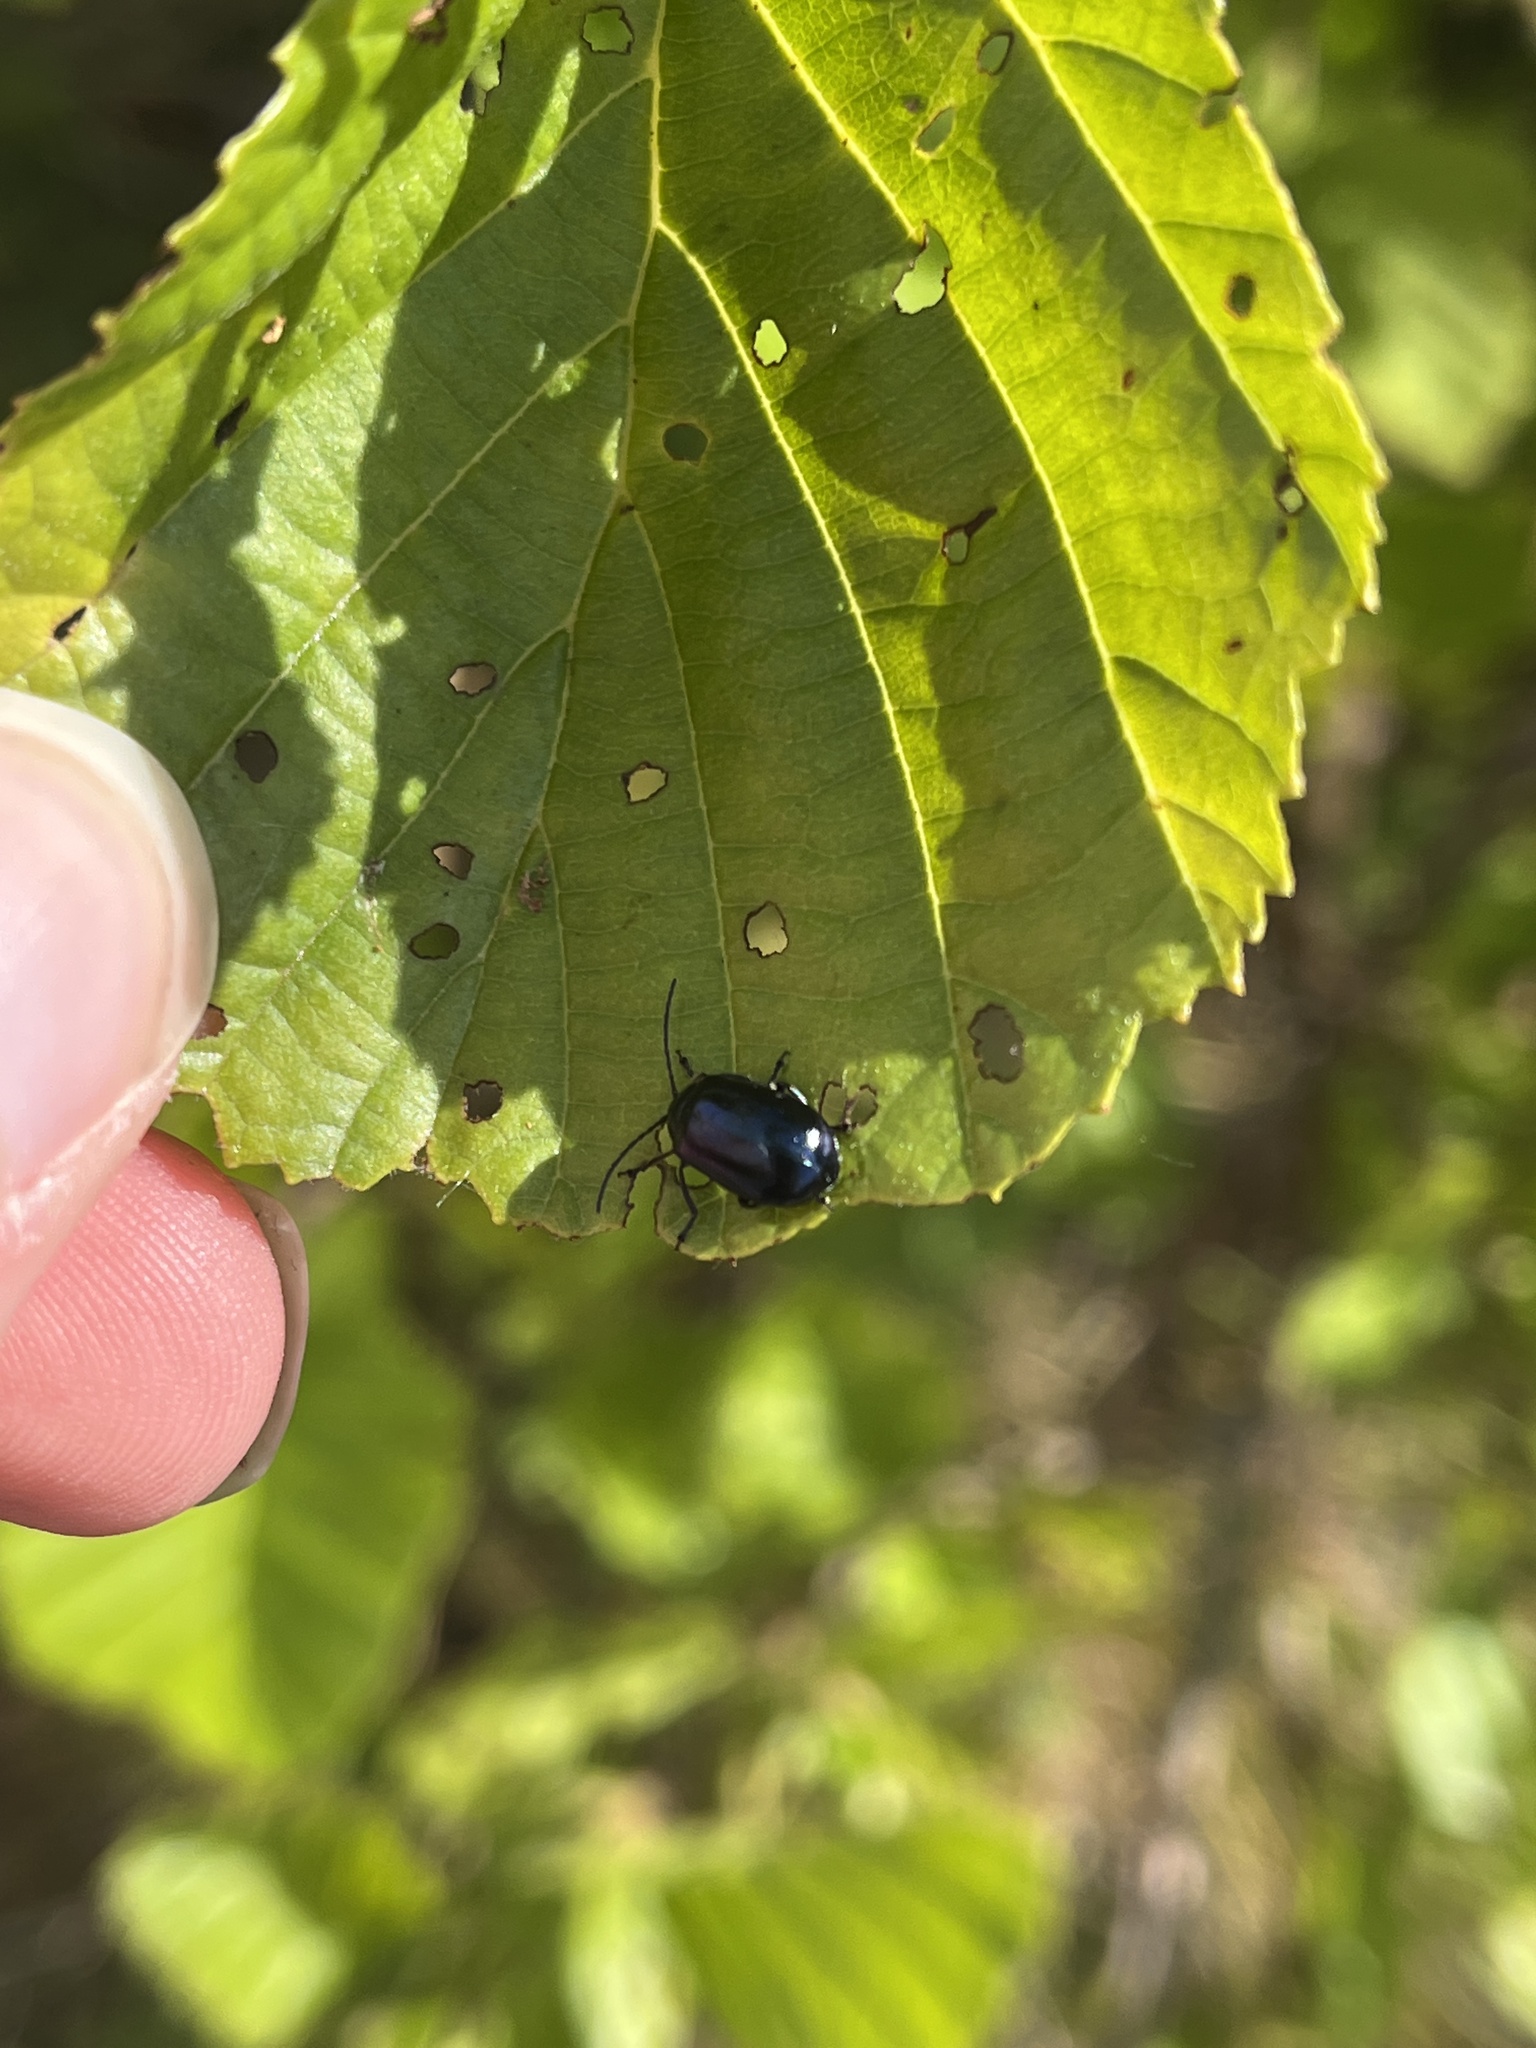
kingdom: Animalia
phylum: Arthropoda
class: Insecta
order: Coleoptera
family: Chrysomelidae
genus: Agelastica
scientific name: Agelastica alni
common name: Alder leaf beetle
